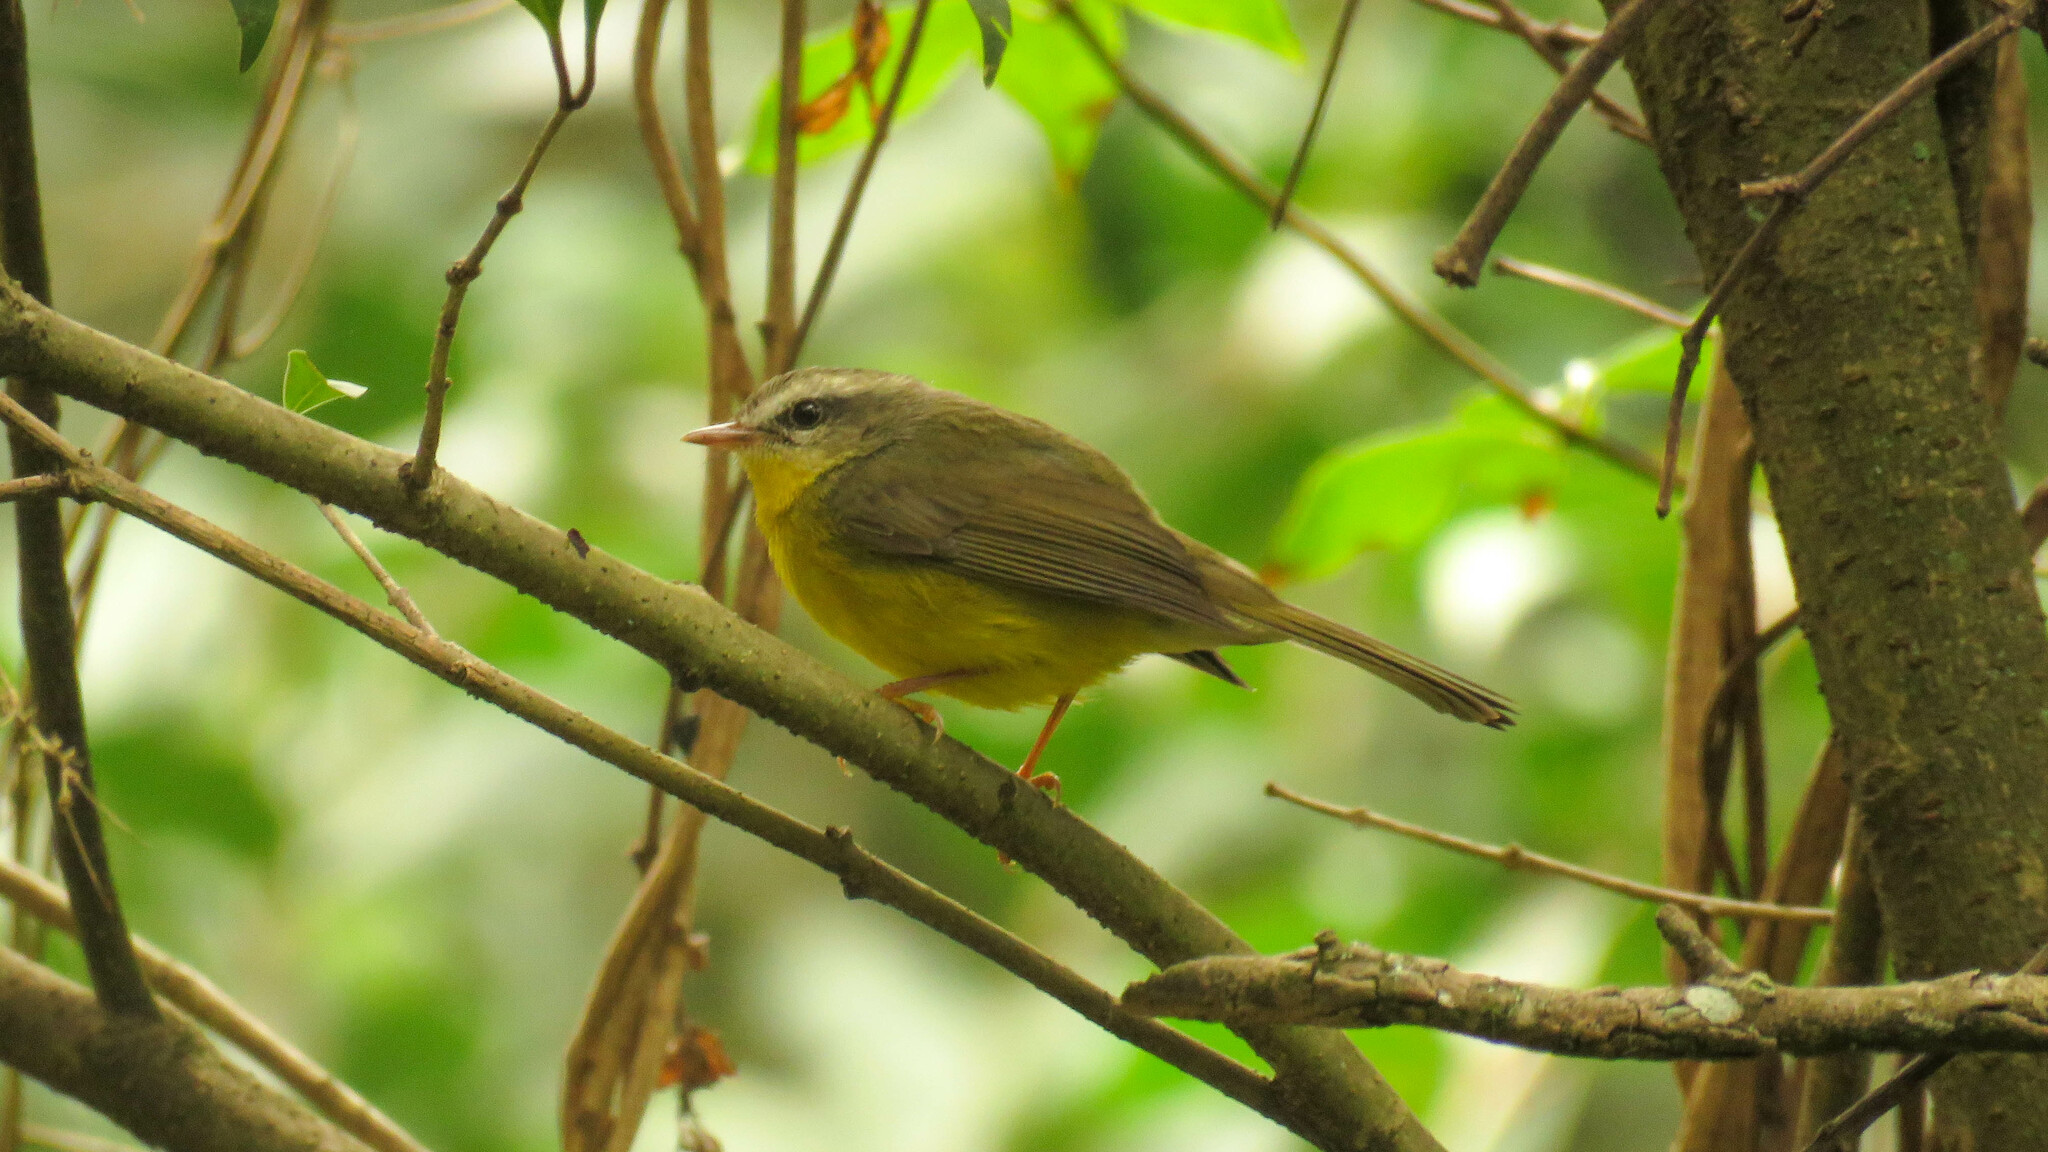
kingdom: Animalia
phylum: Chordata
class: Aves
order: Passeriformes
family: Parulidae
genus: Basileuterus
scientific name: Basileuterus culicivorus
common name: Golden-crowned warbler
